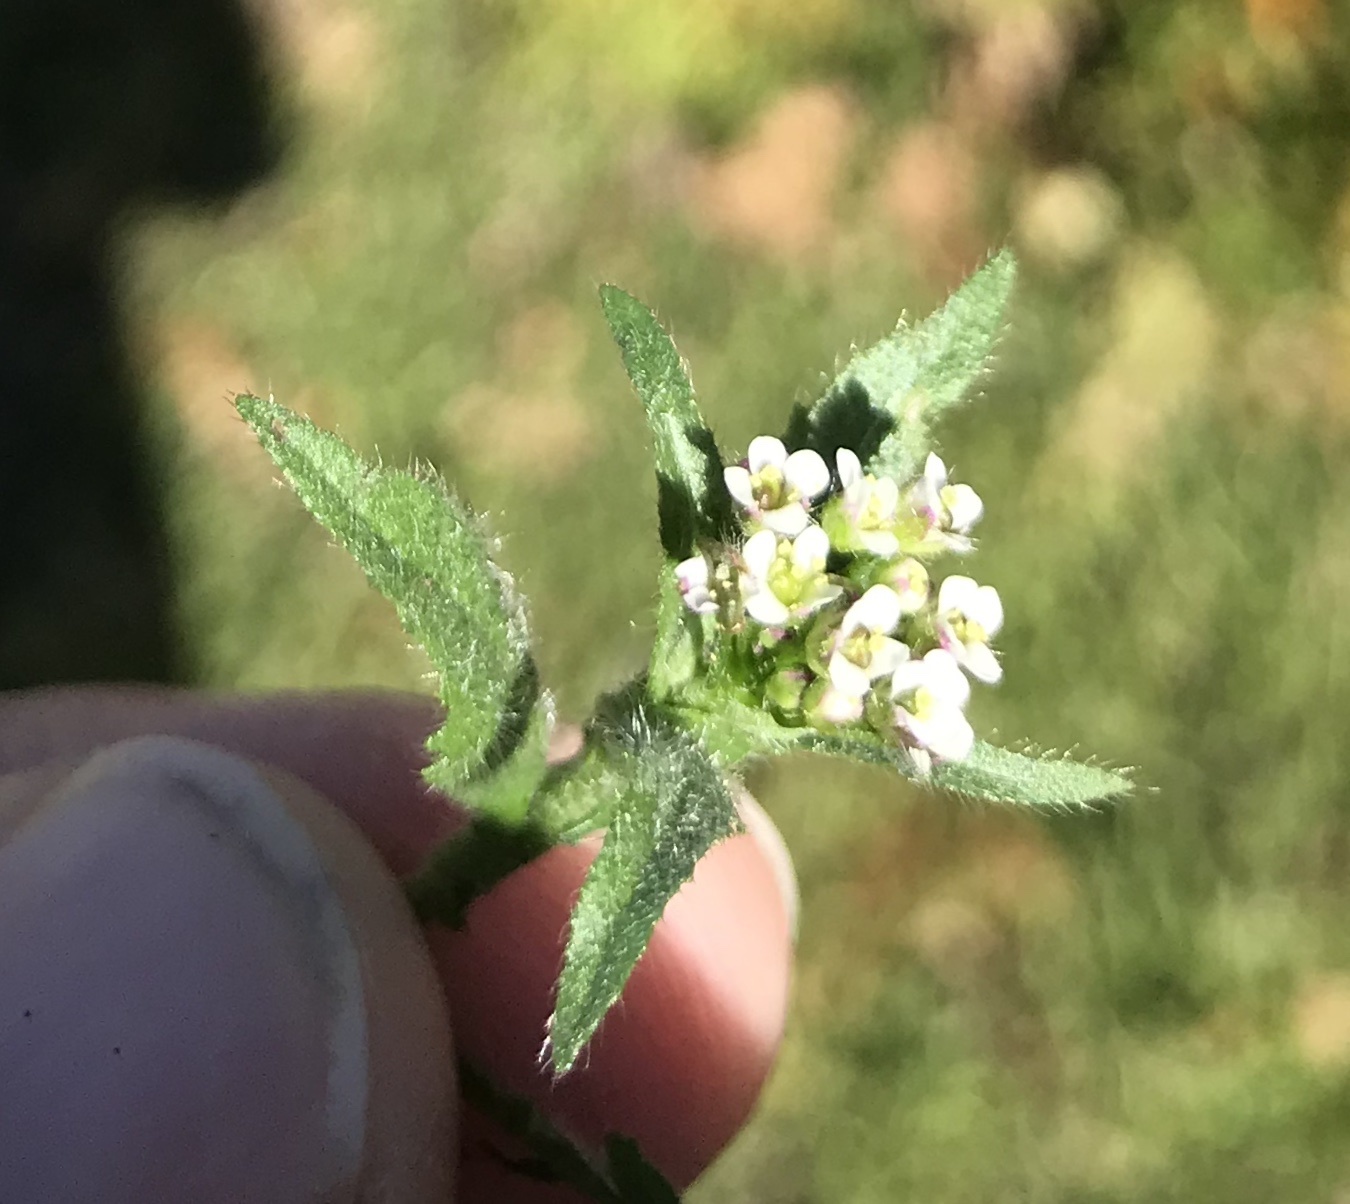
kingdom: Plantae
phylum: Tracheophyta
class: Magnoliopsida
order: Brassicales
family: Brassicaceae
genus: Capsella
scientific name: Capsella bursa-pastoris
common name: Shepherd's purse
